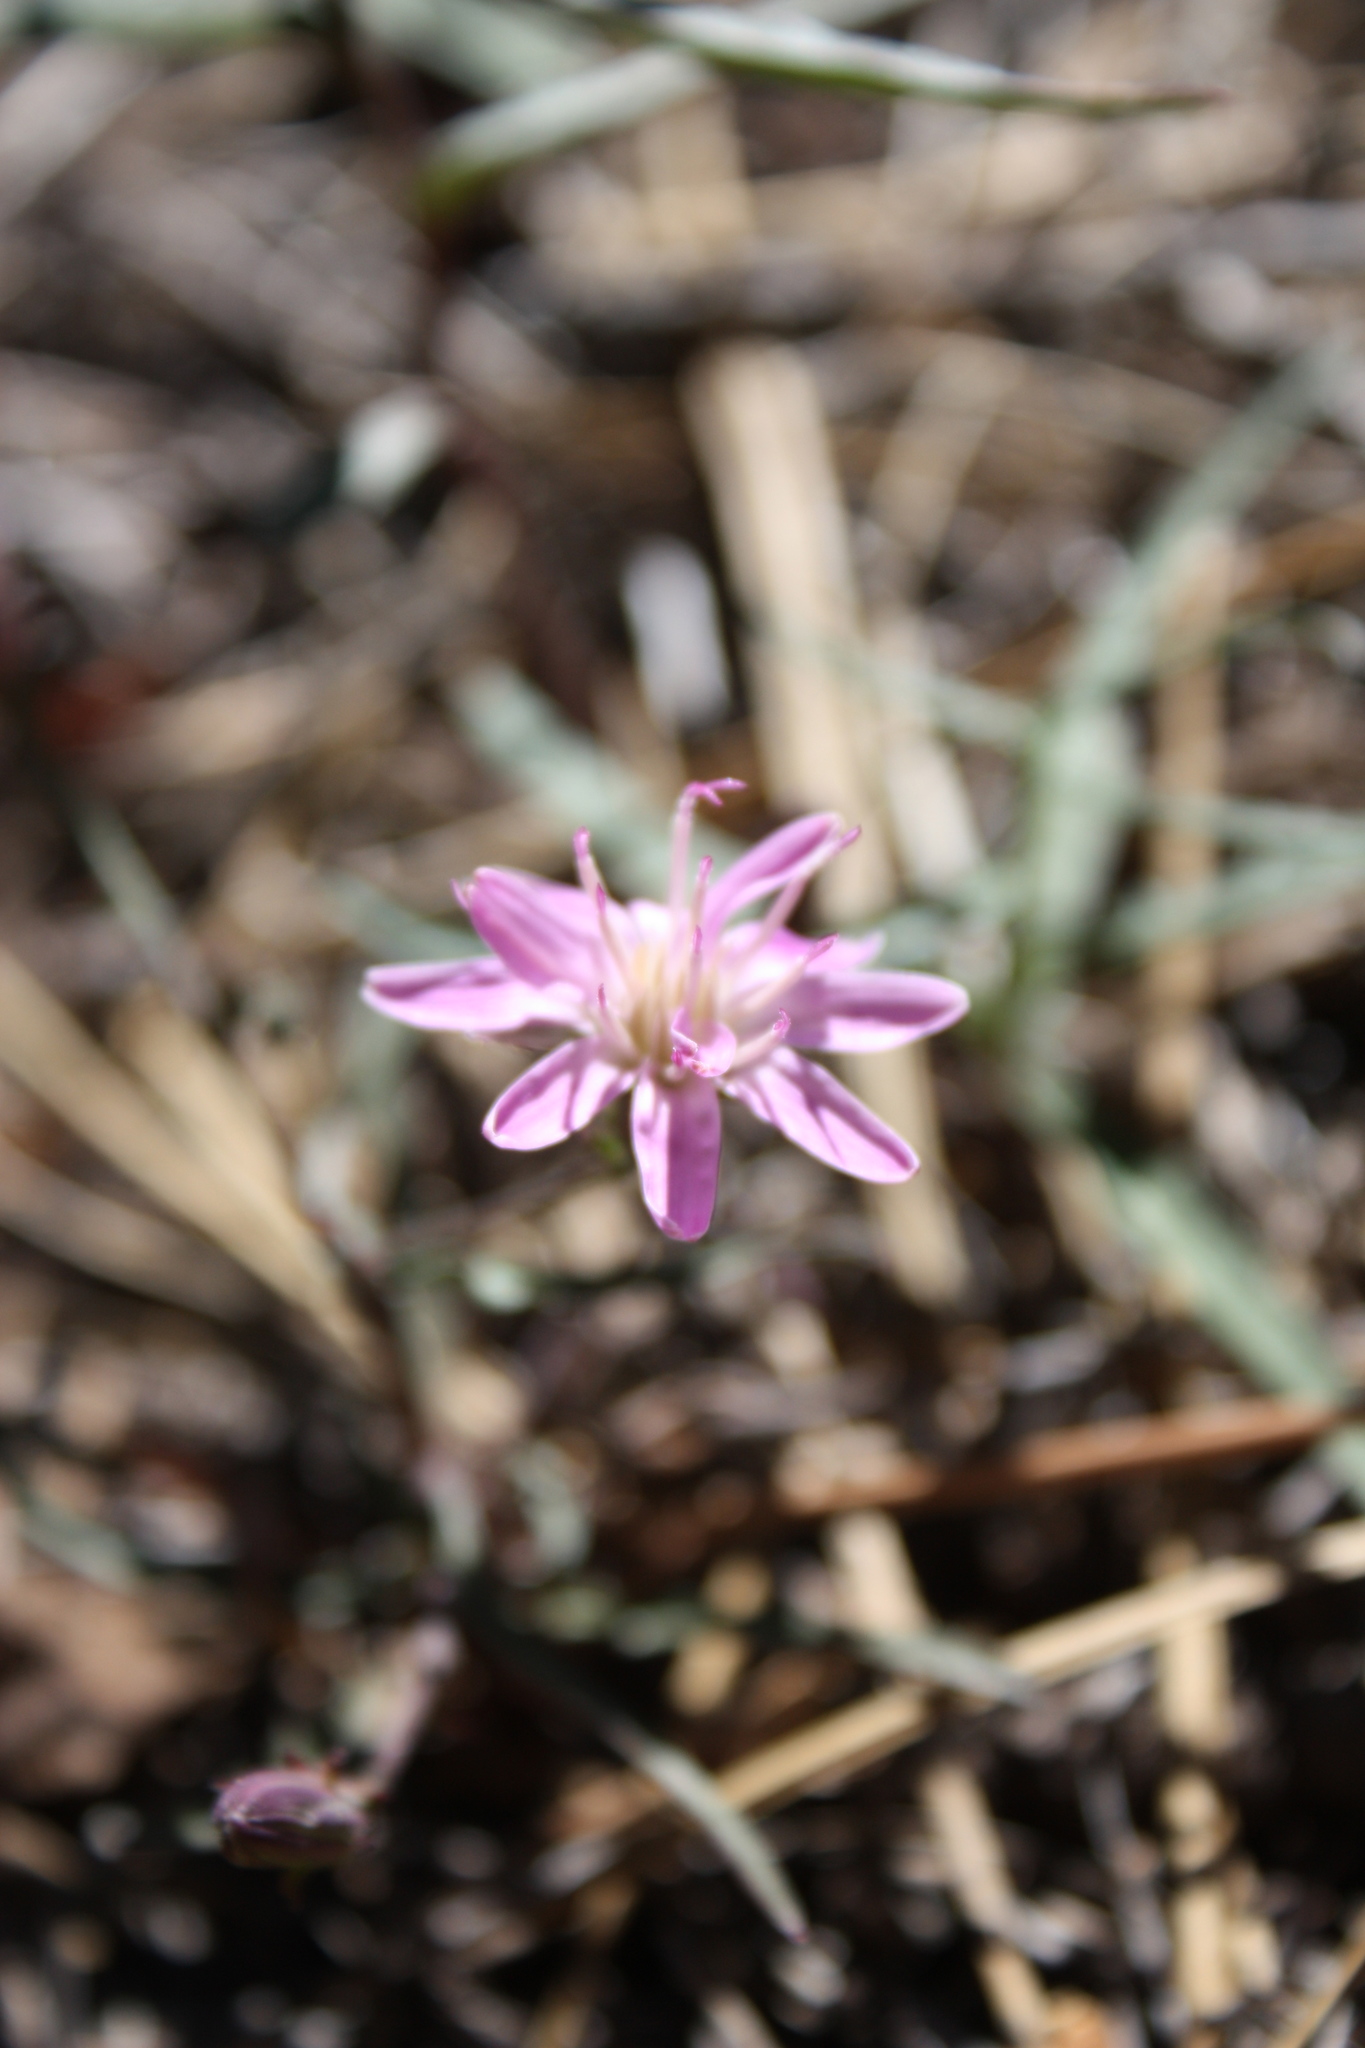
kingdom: Plantae
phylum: Tracheophyta
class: Magnoliopsida
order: Asterales
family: Asteraceae
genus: Stephanomeria
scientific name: Stephanomeria lactucina
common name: Large-flowered wirelettuce
